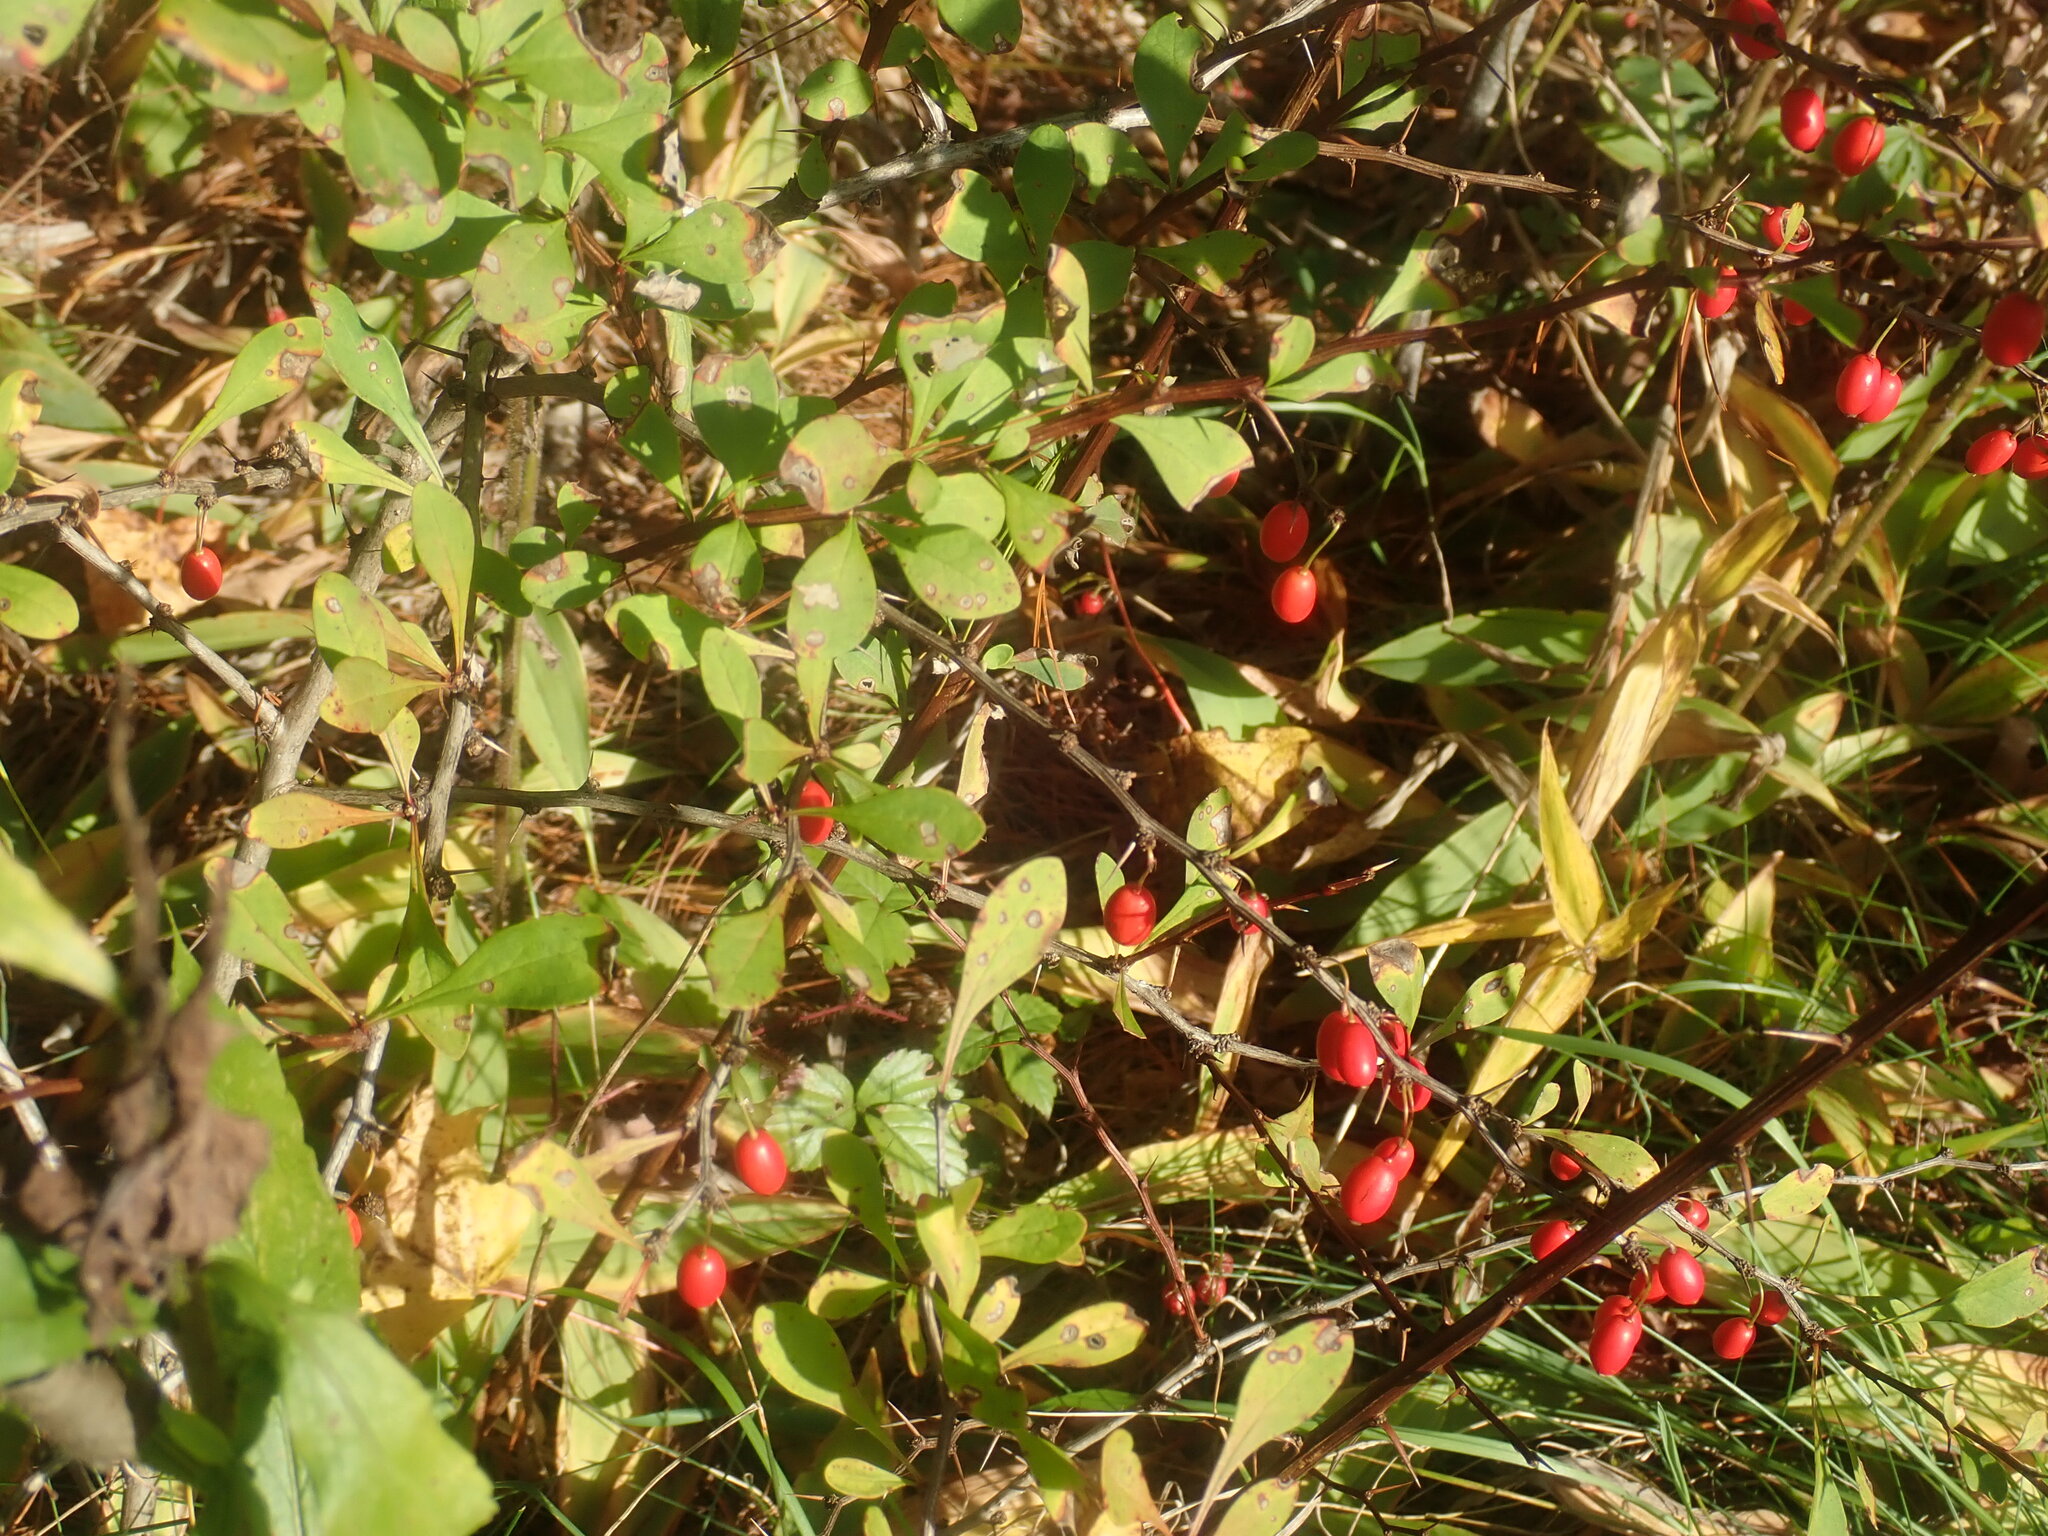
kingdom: Plantae
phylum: Tracheophyta
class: Magnoliopsida
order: Ranunculales
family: Berberidaceae
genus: Berberis
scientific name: Berberis thunbergii
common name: Japanese barberry
